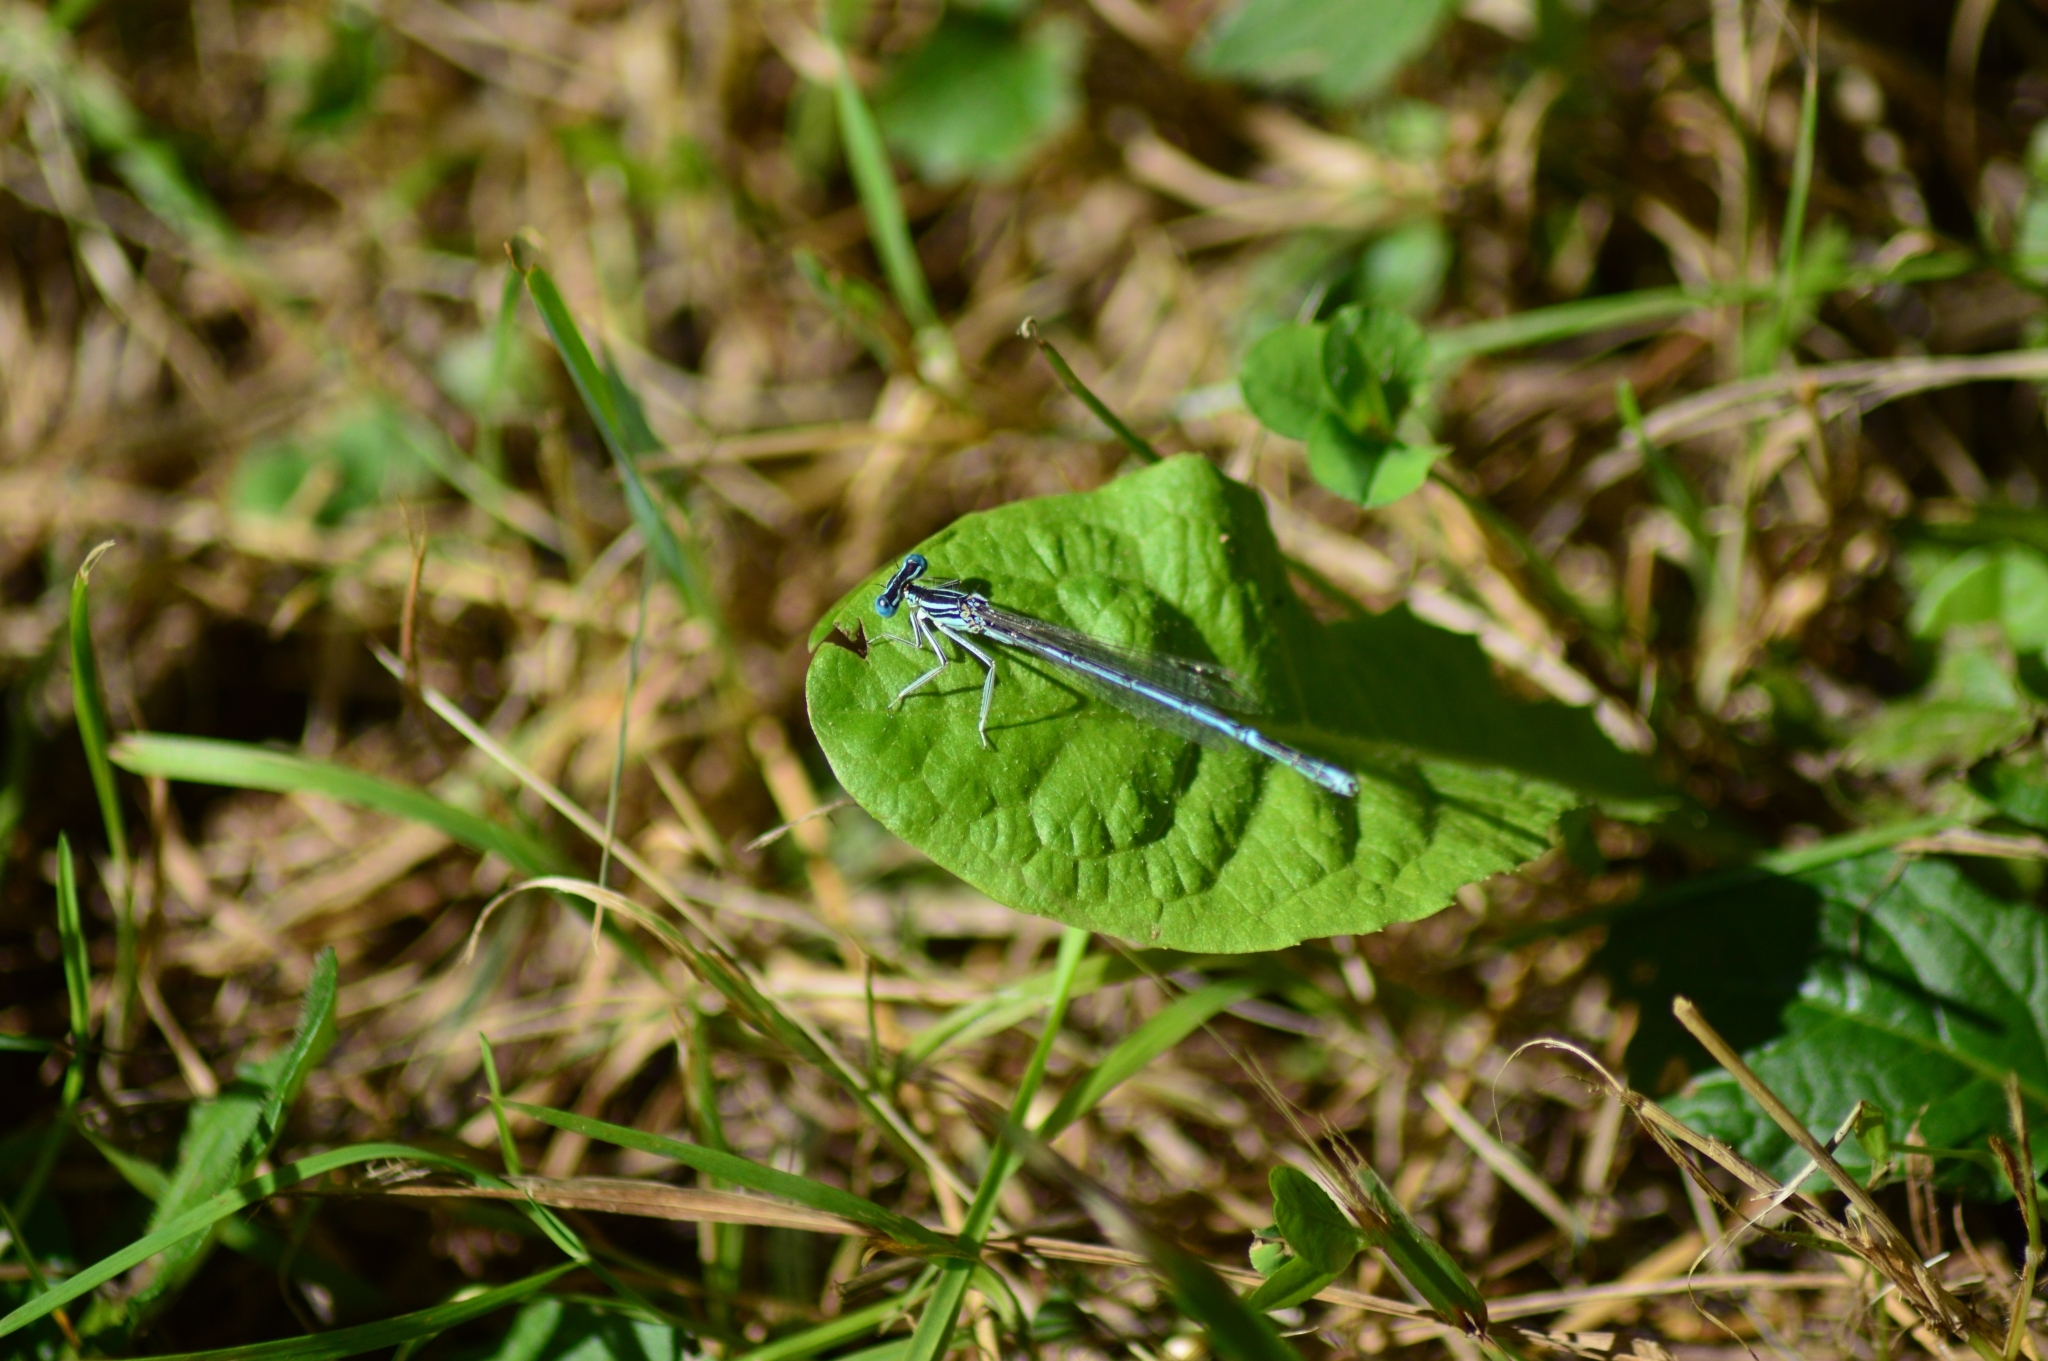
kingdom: Animalia
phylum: Arthropoda
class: Insecta
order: Odonata
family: Platycnemididae
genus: Platycnemis
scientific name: Platycnemis pennipes
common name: White-legged damselfly
